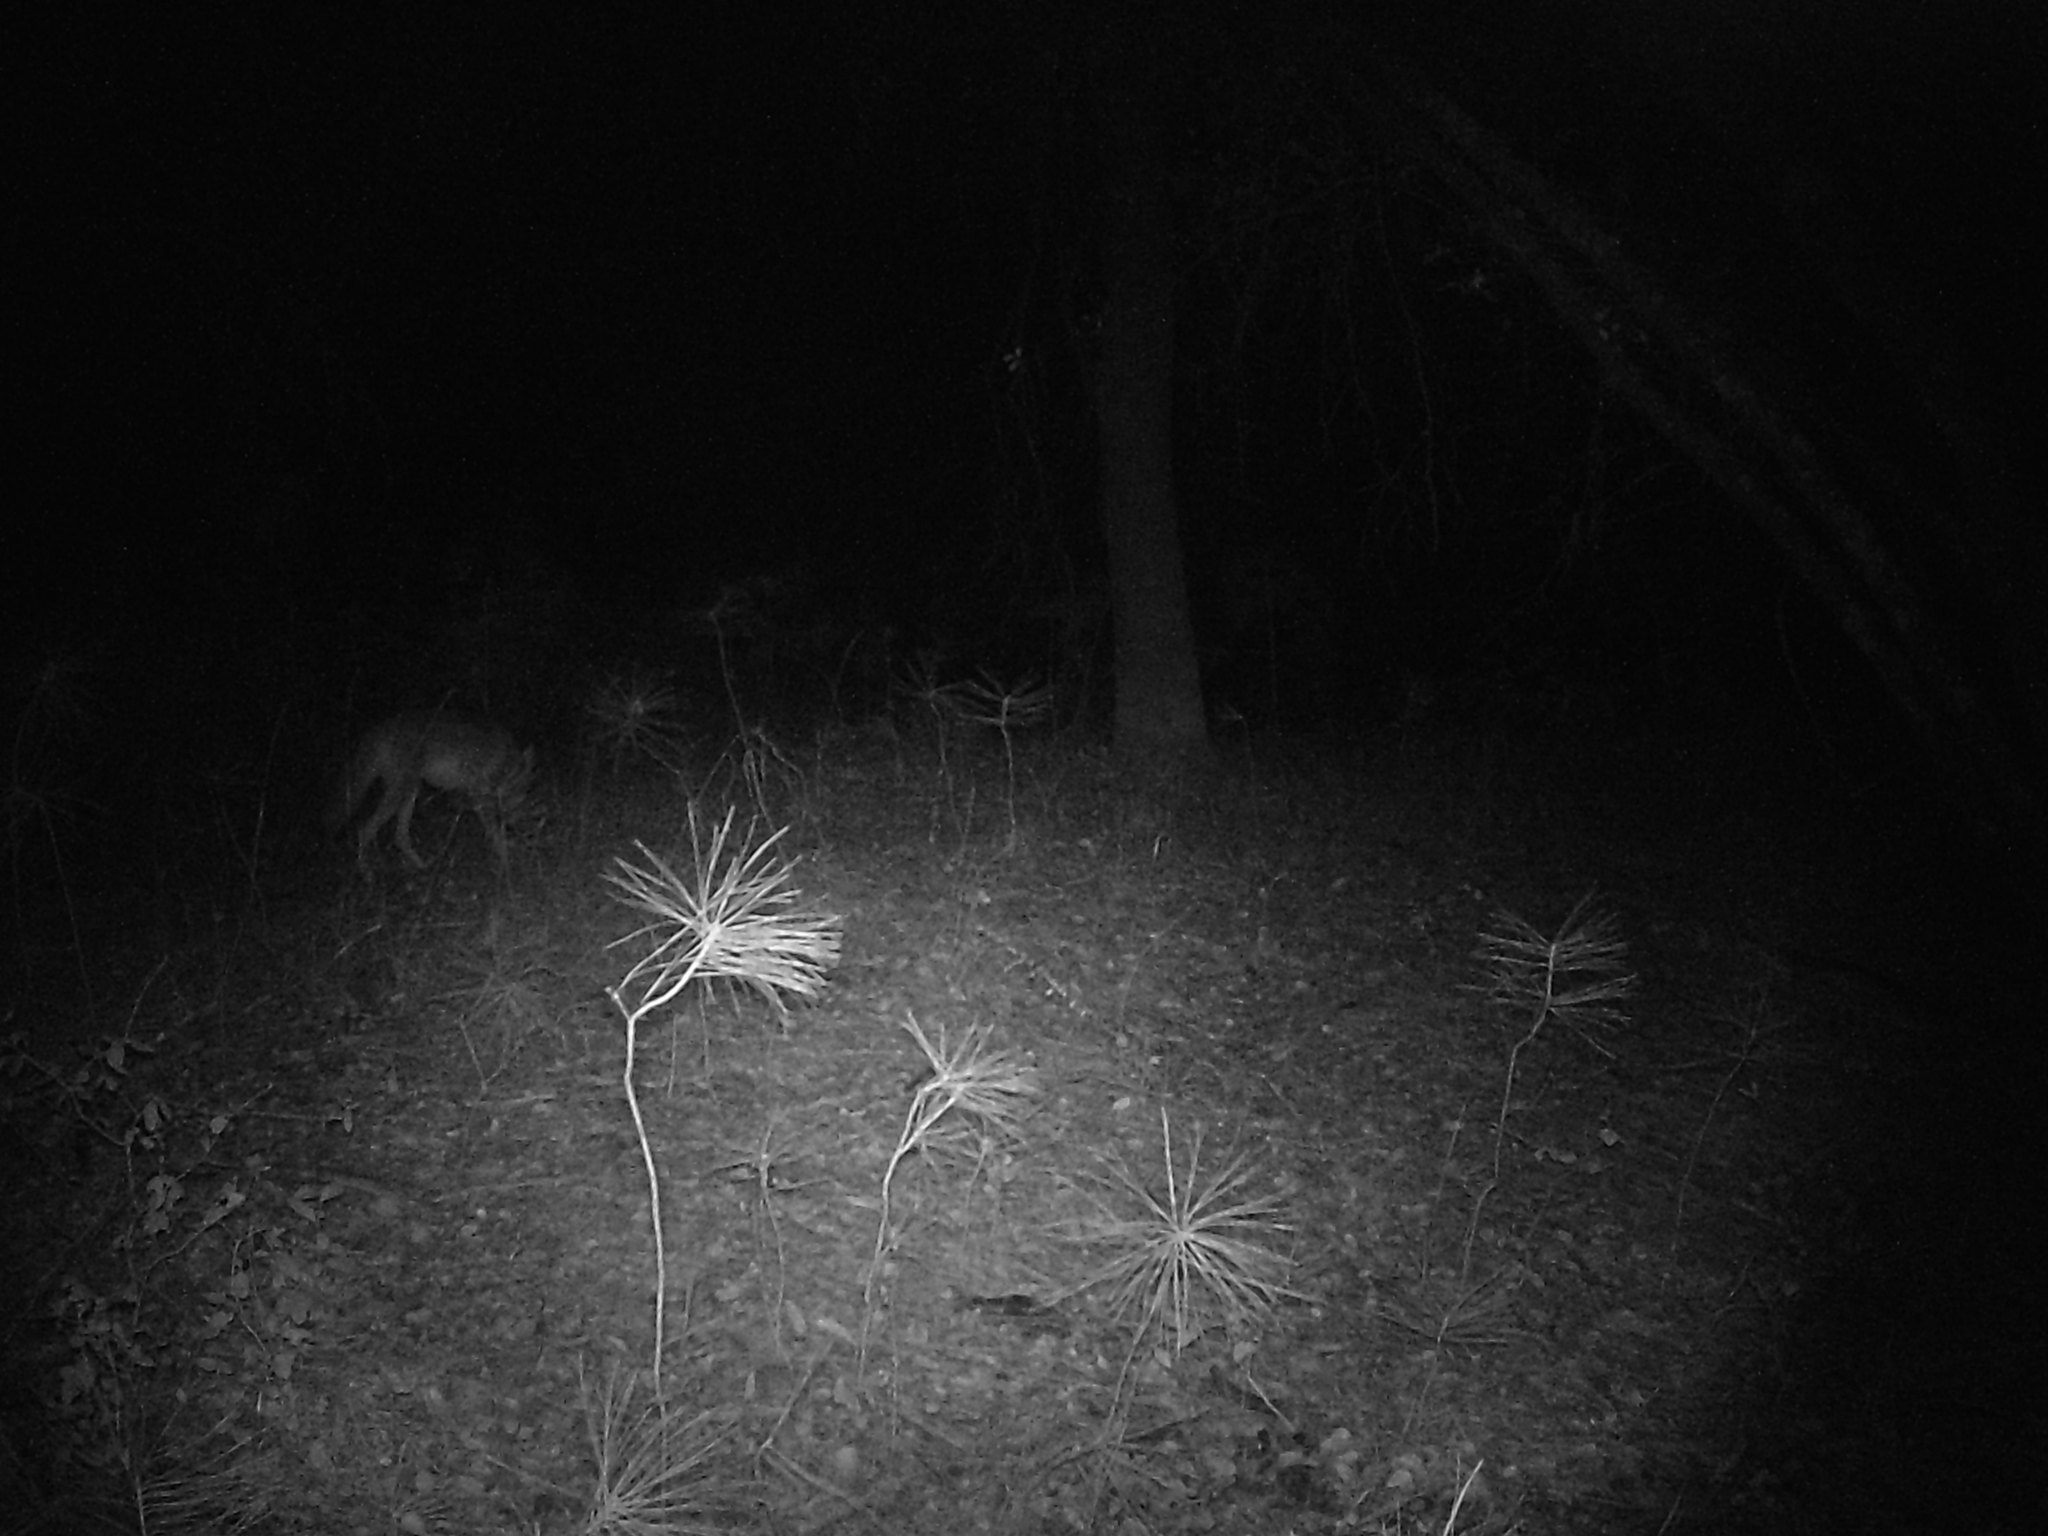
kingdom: Animalia
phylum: Chordata
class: Mammalia
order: Carnivora
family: Canidae
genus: Canis
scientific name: Canis latrans
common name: Coyote
